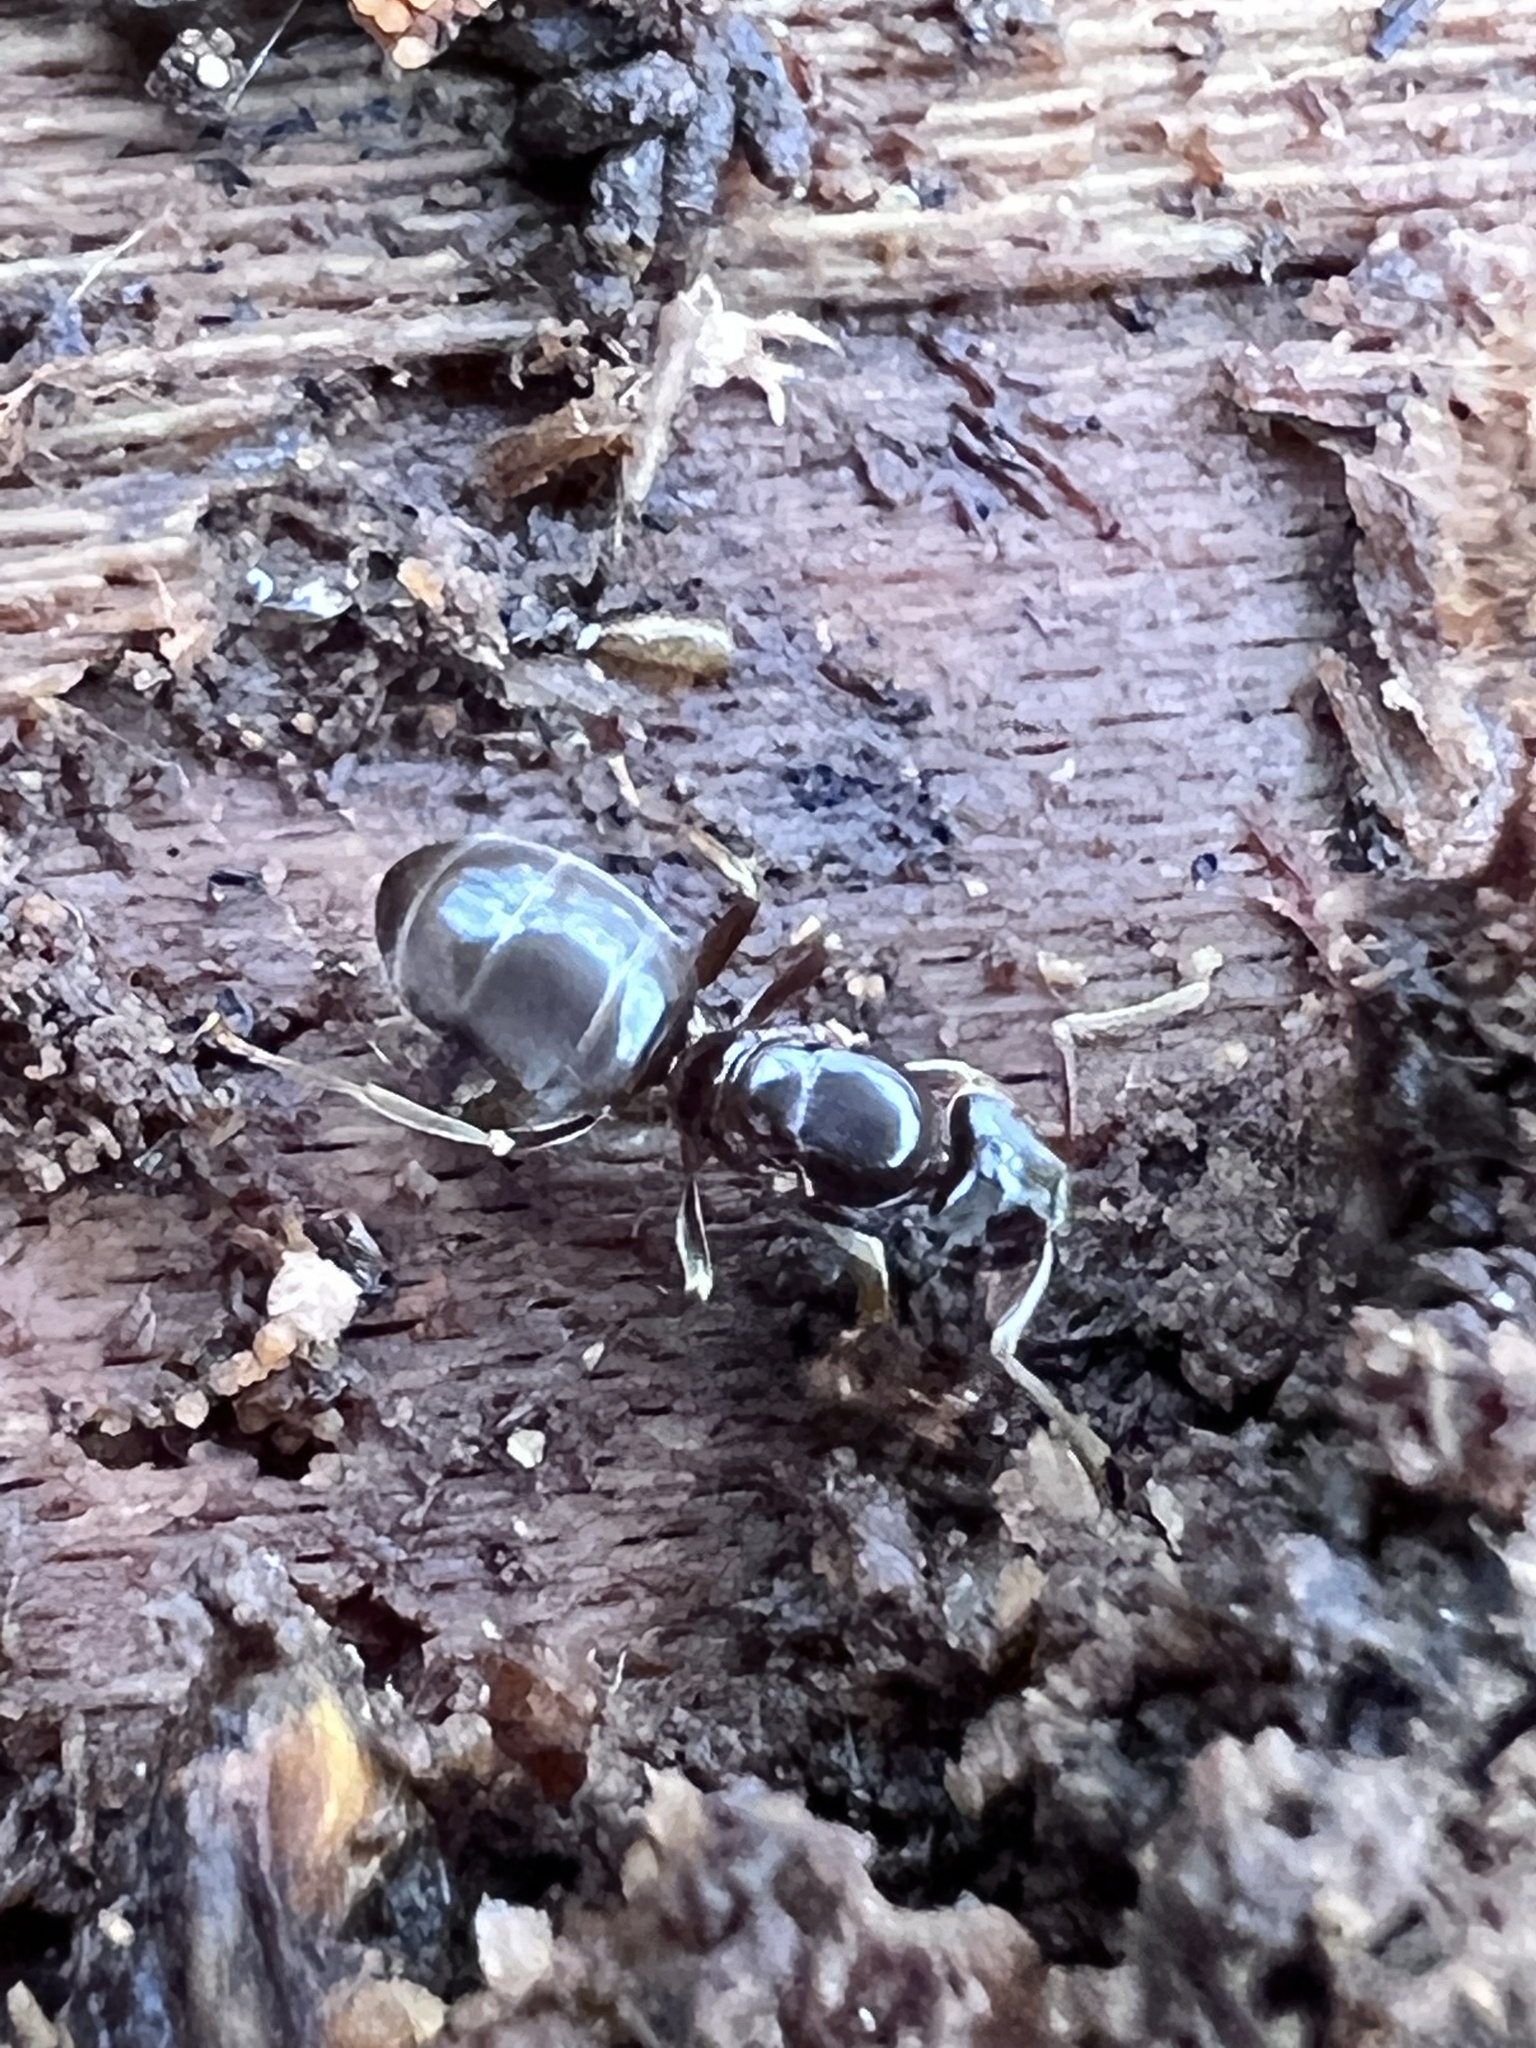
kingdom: Animalia
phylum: Arthropoda
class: Insecta
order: Hymenoptera
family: Formicidae
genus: Lasius
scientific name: Lasius aphidicola
